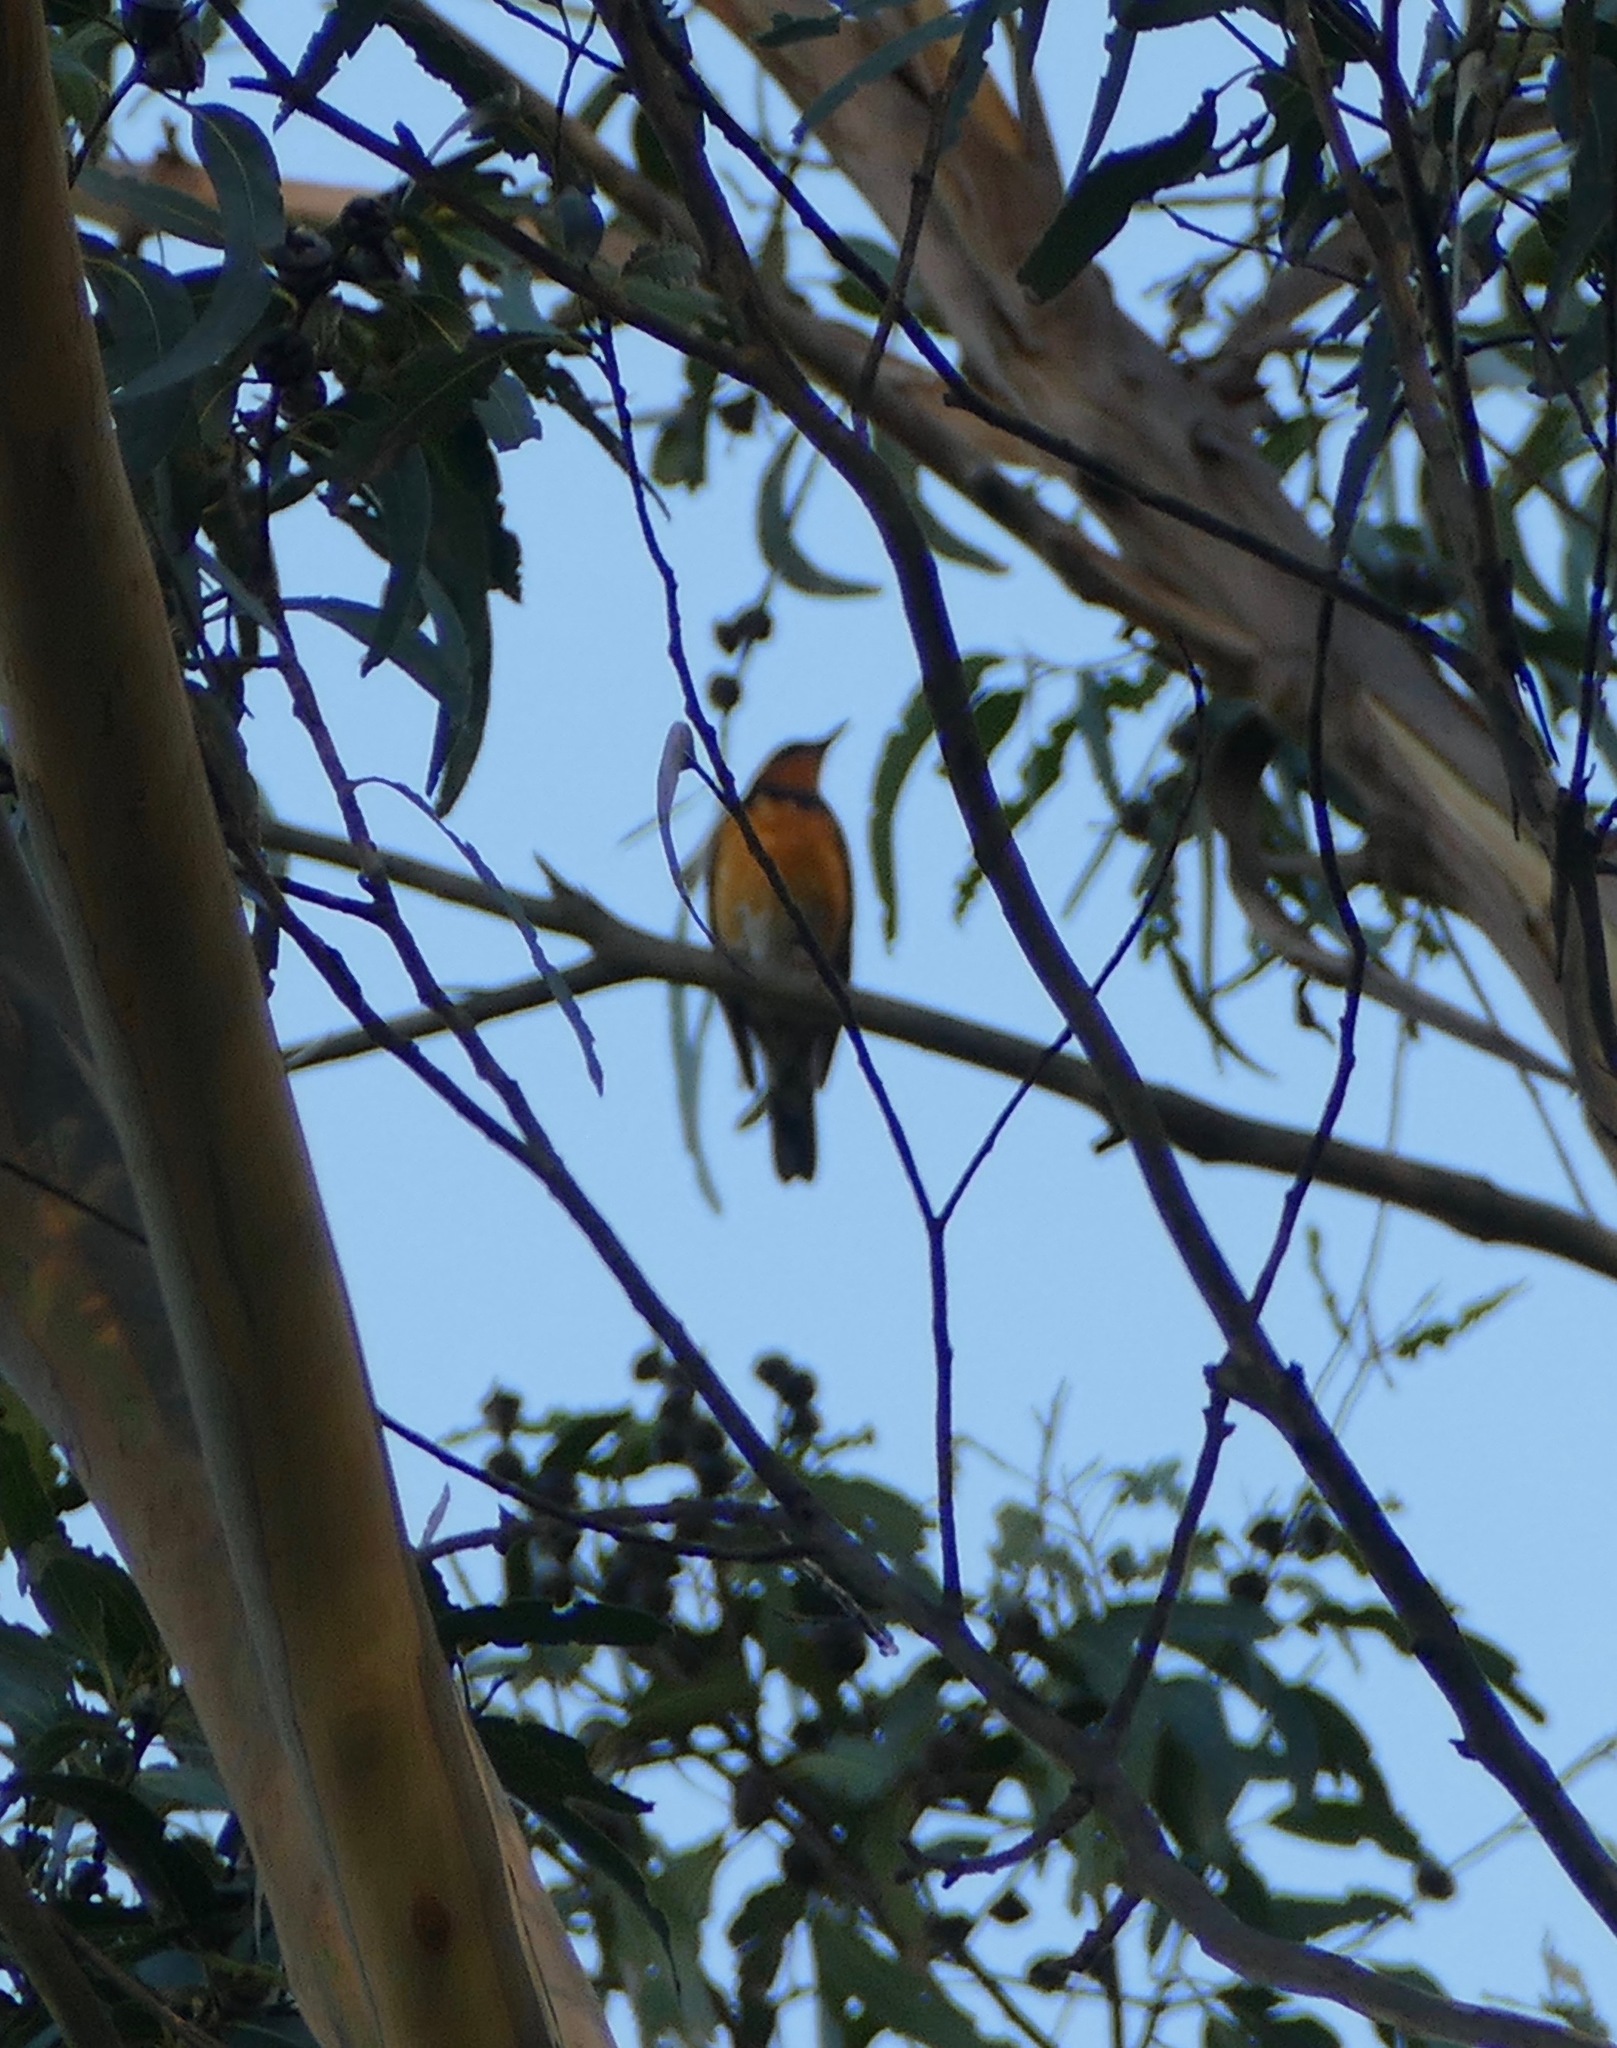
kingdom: Animalia
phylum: Chordata
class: Aves
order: Passeriformes
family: Turdidae
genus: Ixoreus
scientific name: Ixoreus naevius
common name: Varied thrush
